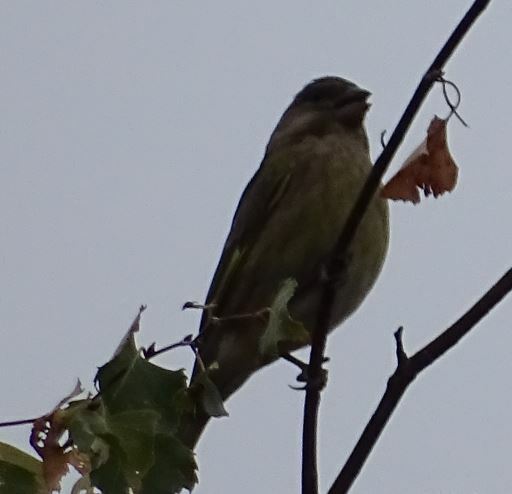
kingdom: Plantae
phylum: Tracheophyta
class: Liliopsida
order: Poales
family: Poaceae
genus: Chloris
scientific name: Chloris chloris
